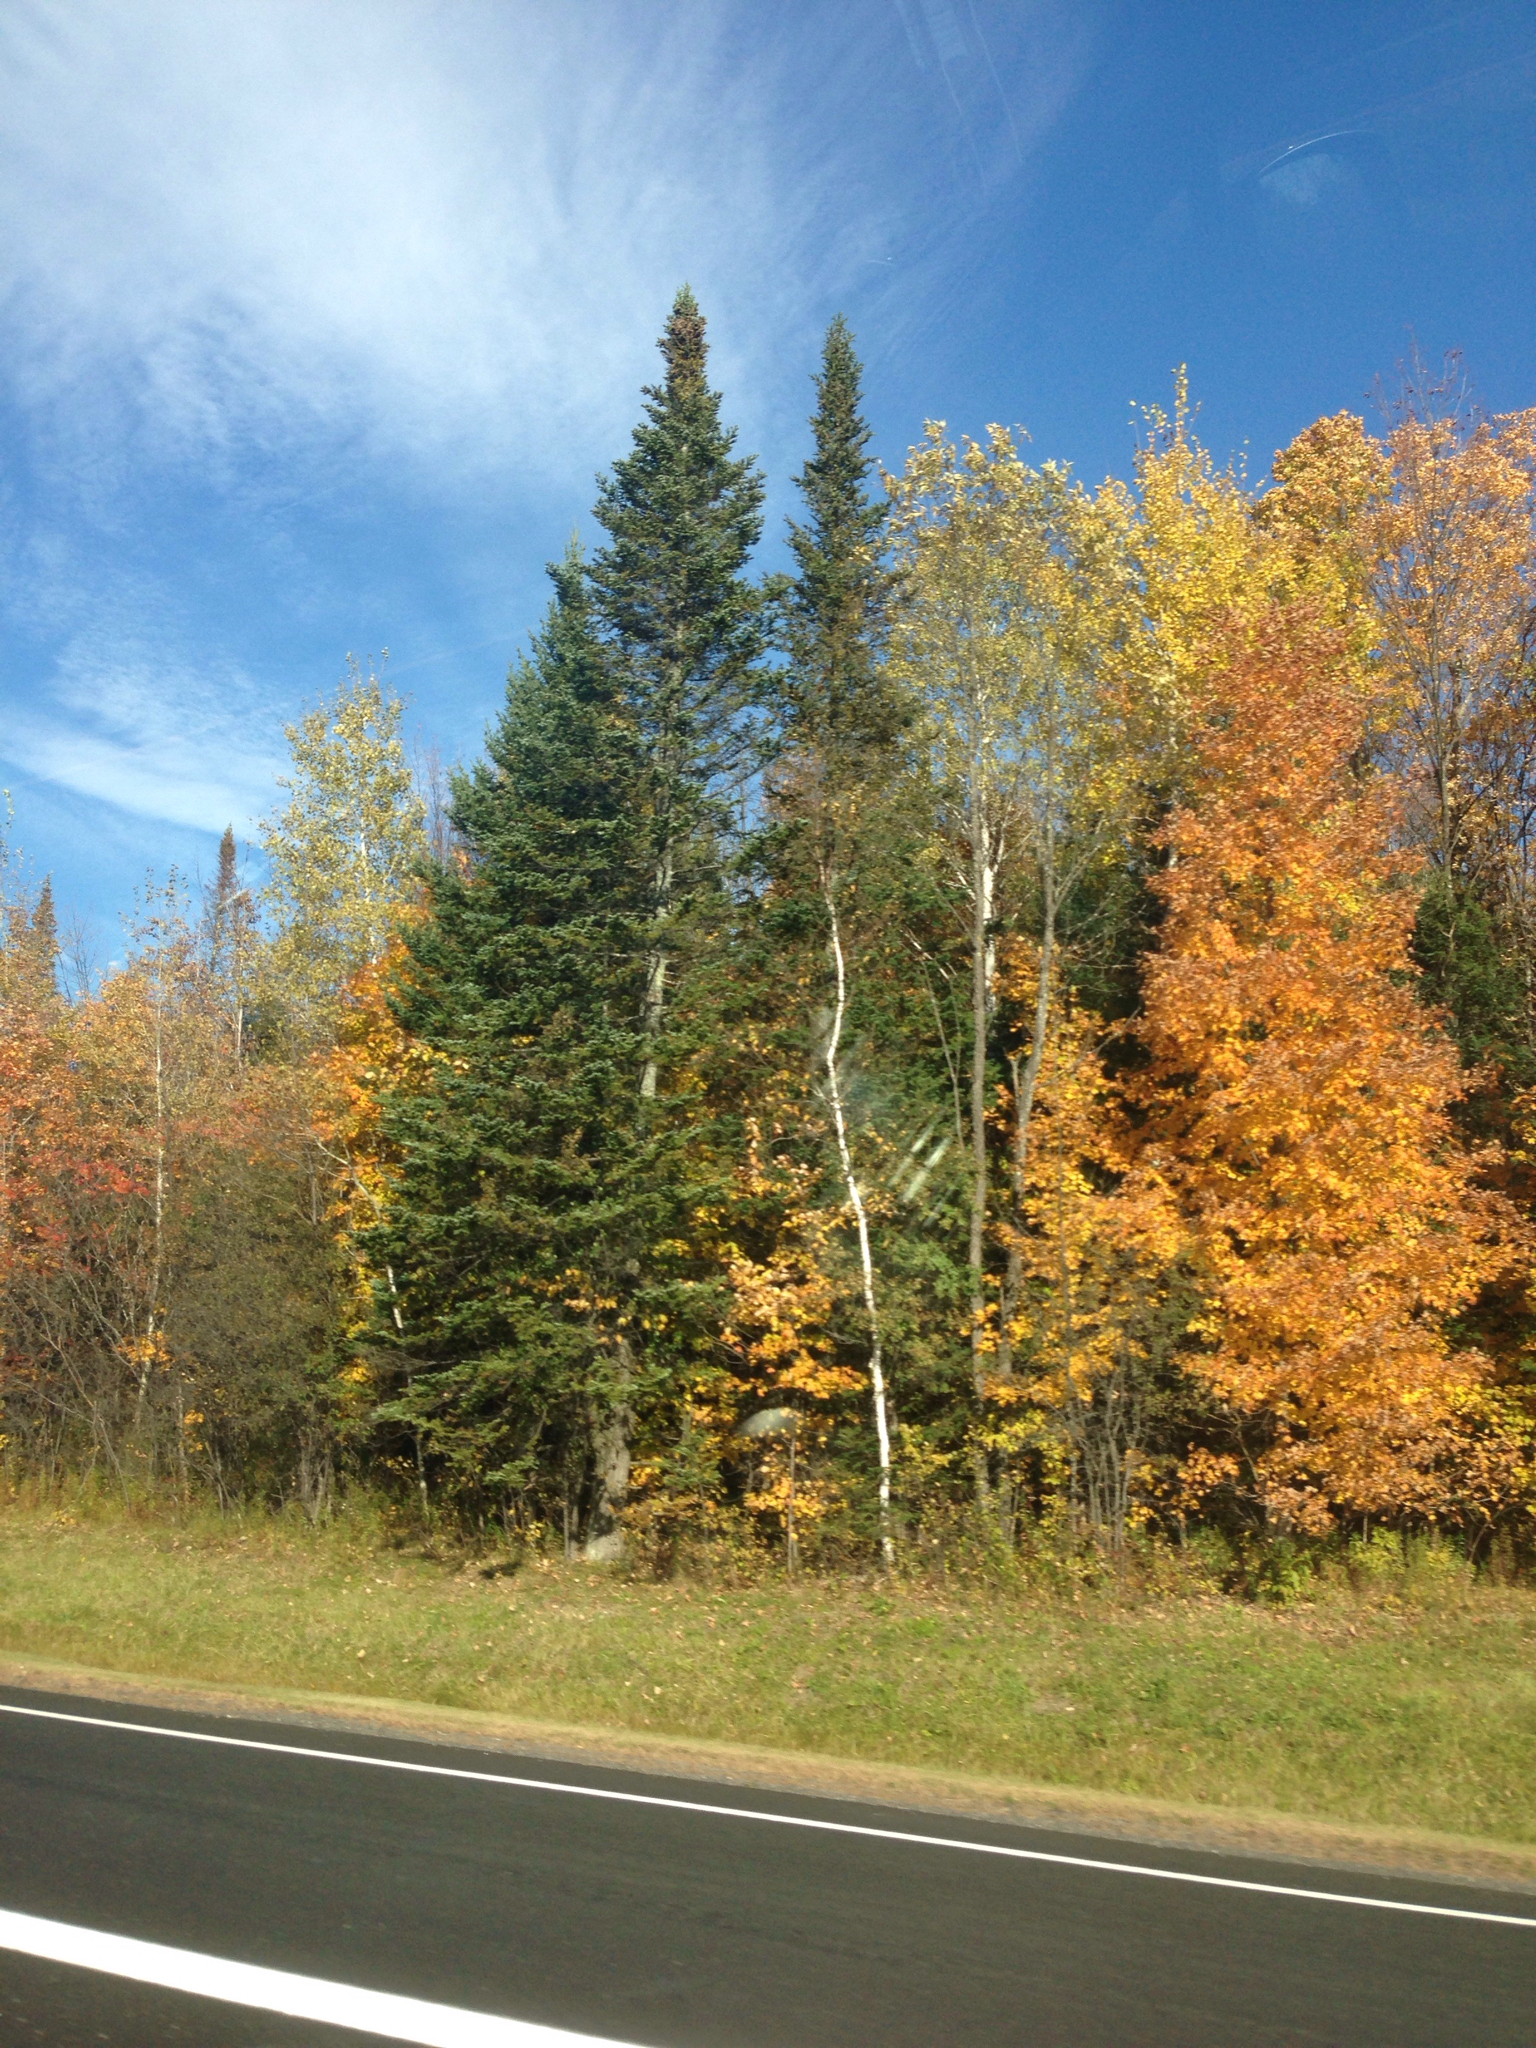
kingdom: Plantae
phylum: Tracheophyta
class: Pinopsida
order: Pinales
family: Pinaceae
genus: Abies
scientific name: Abies balsamea
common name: Balsam fir
